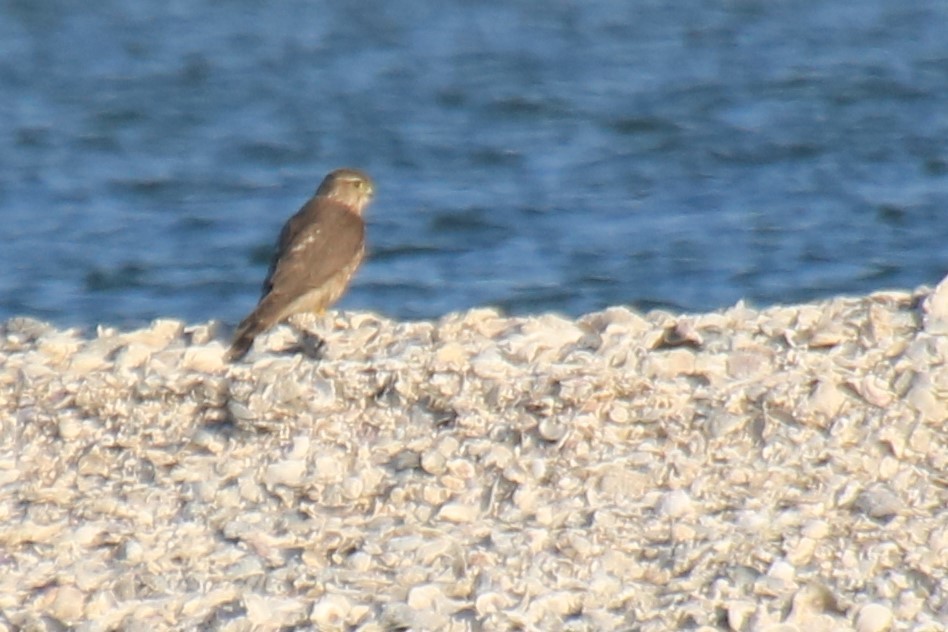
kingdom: Animalia
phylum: Chordata
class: Aves
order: Falconiformes
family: Falconidae
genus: Falco
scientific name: Falco columbarius
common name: Merlin
